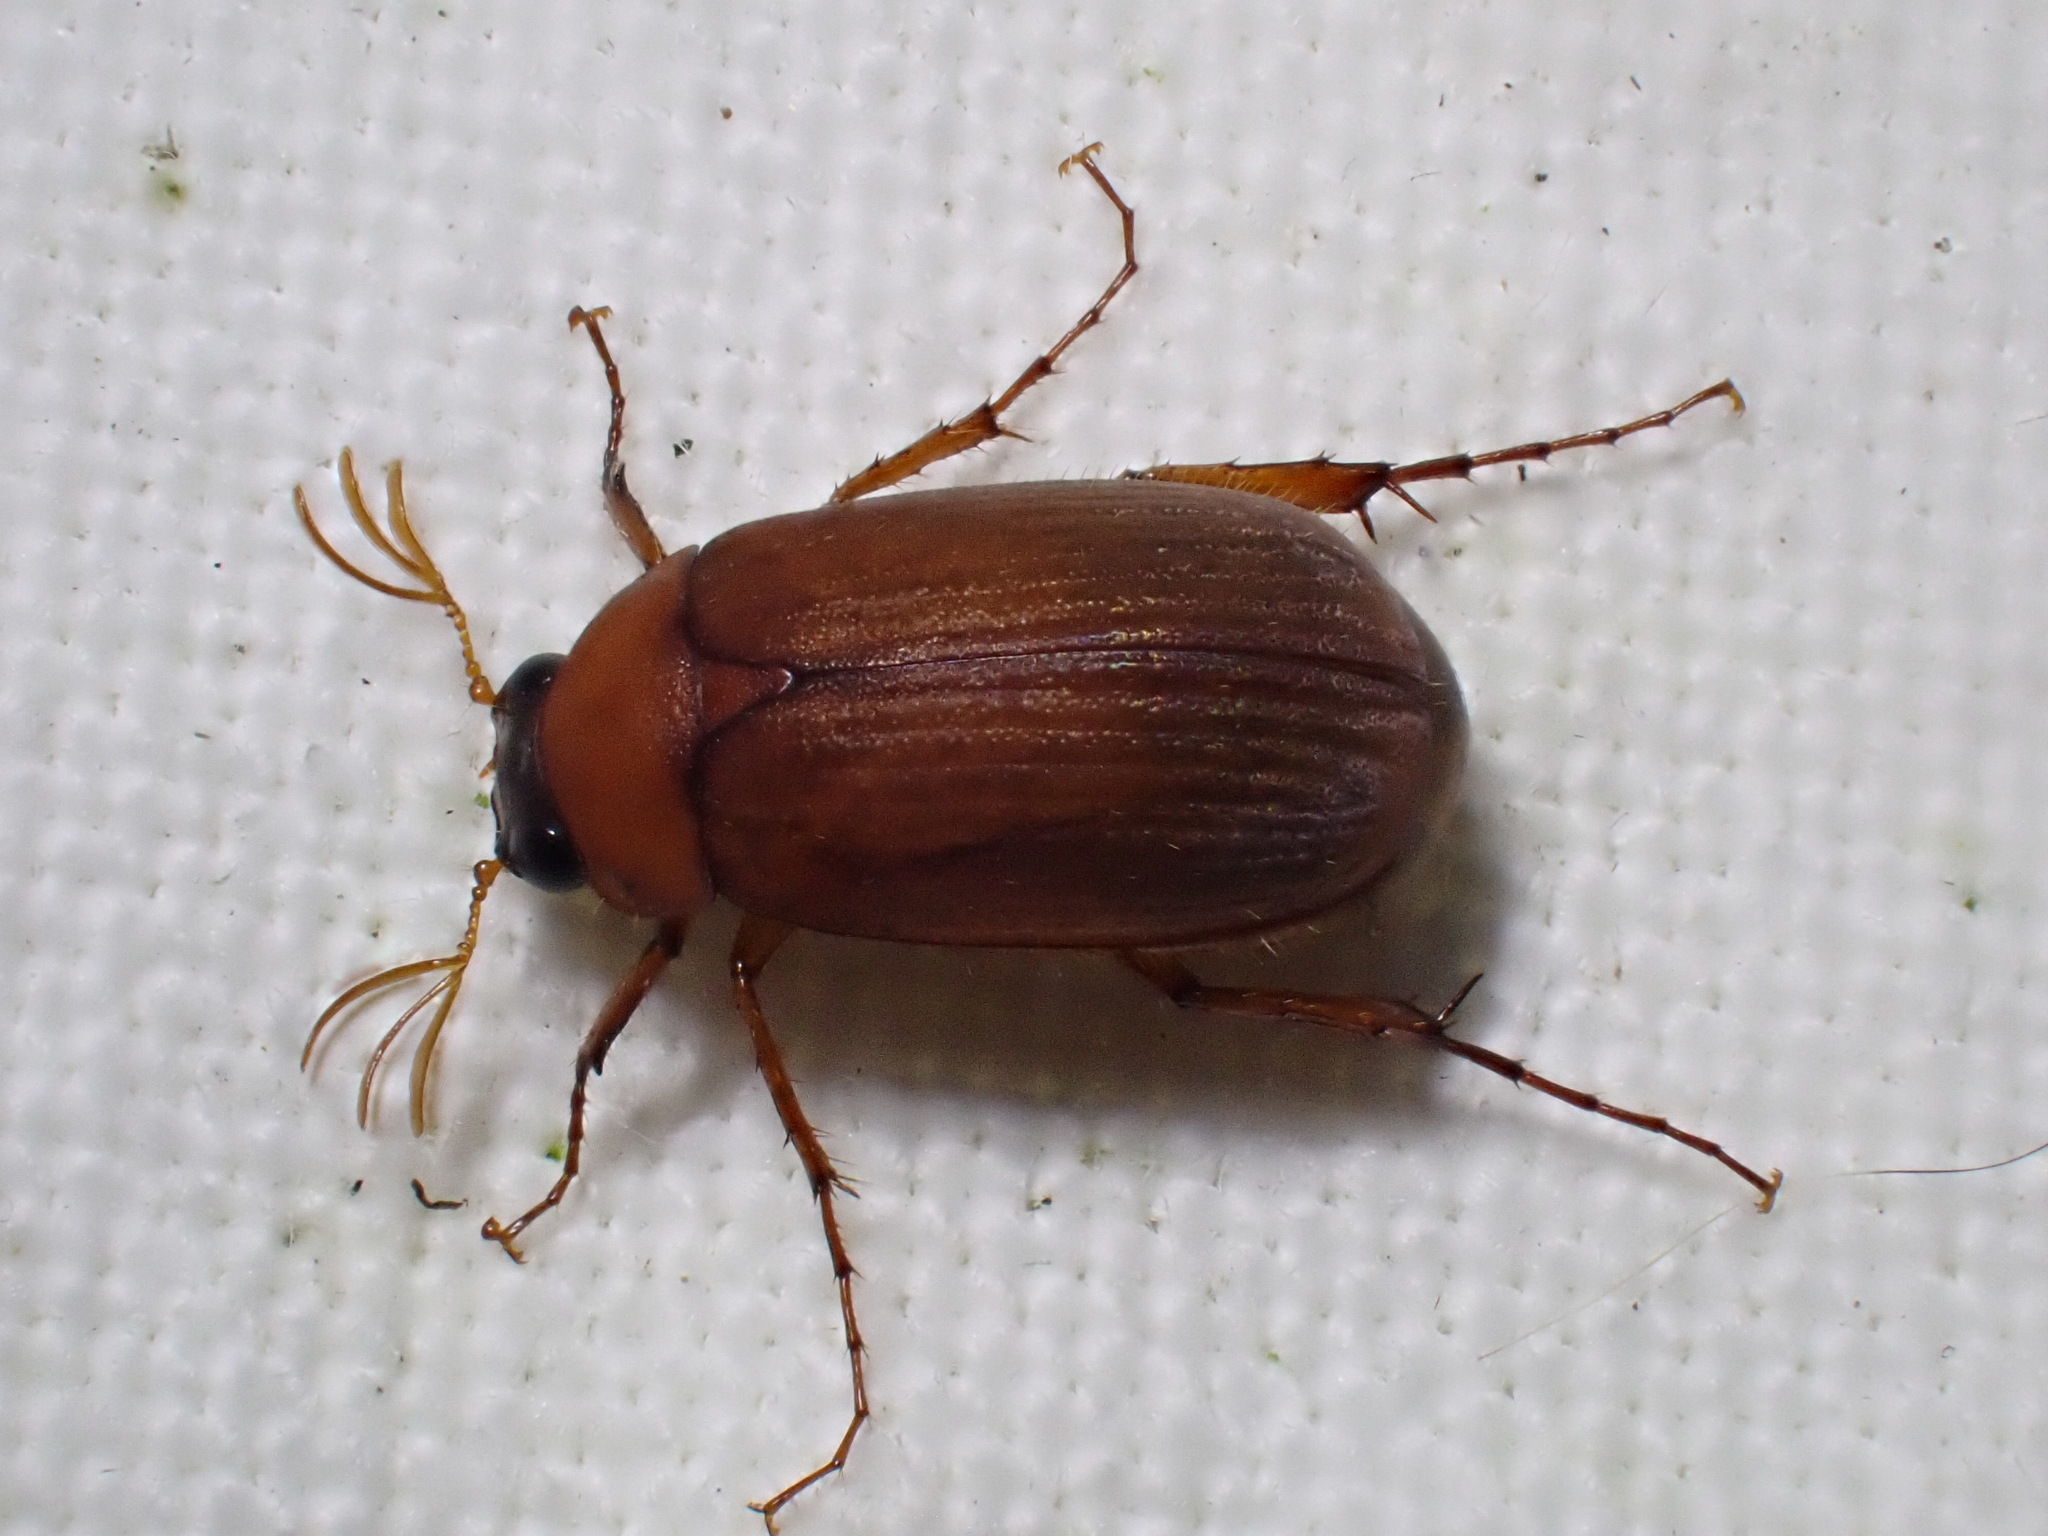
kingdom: Animalia
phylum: Arthropoda
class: Insecta
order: Coleoptera
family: Scarabaeidae
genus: Serica
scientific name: Serica brunnea
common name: Brown chafer
